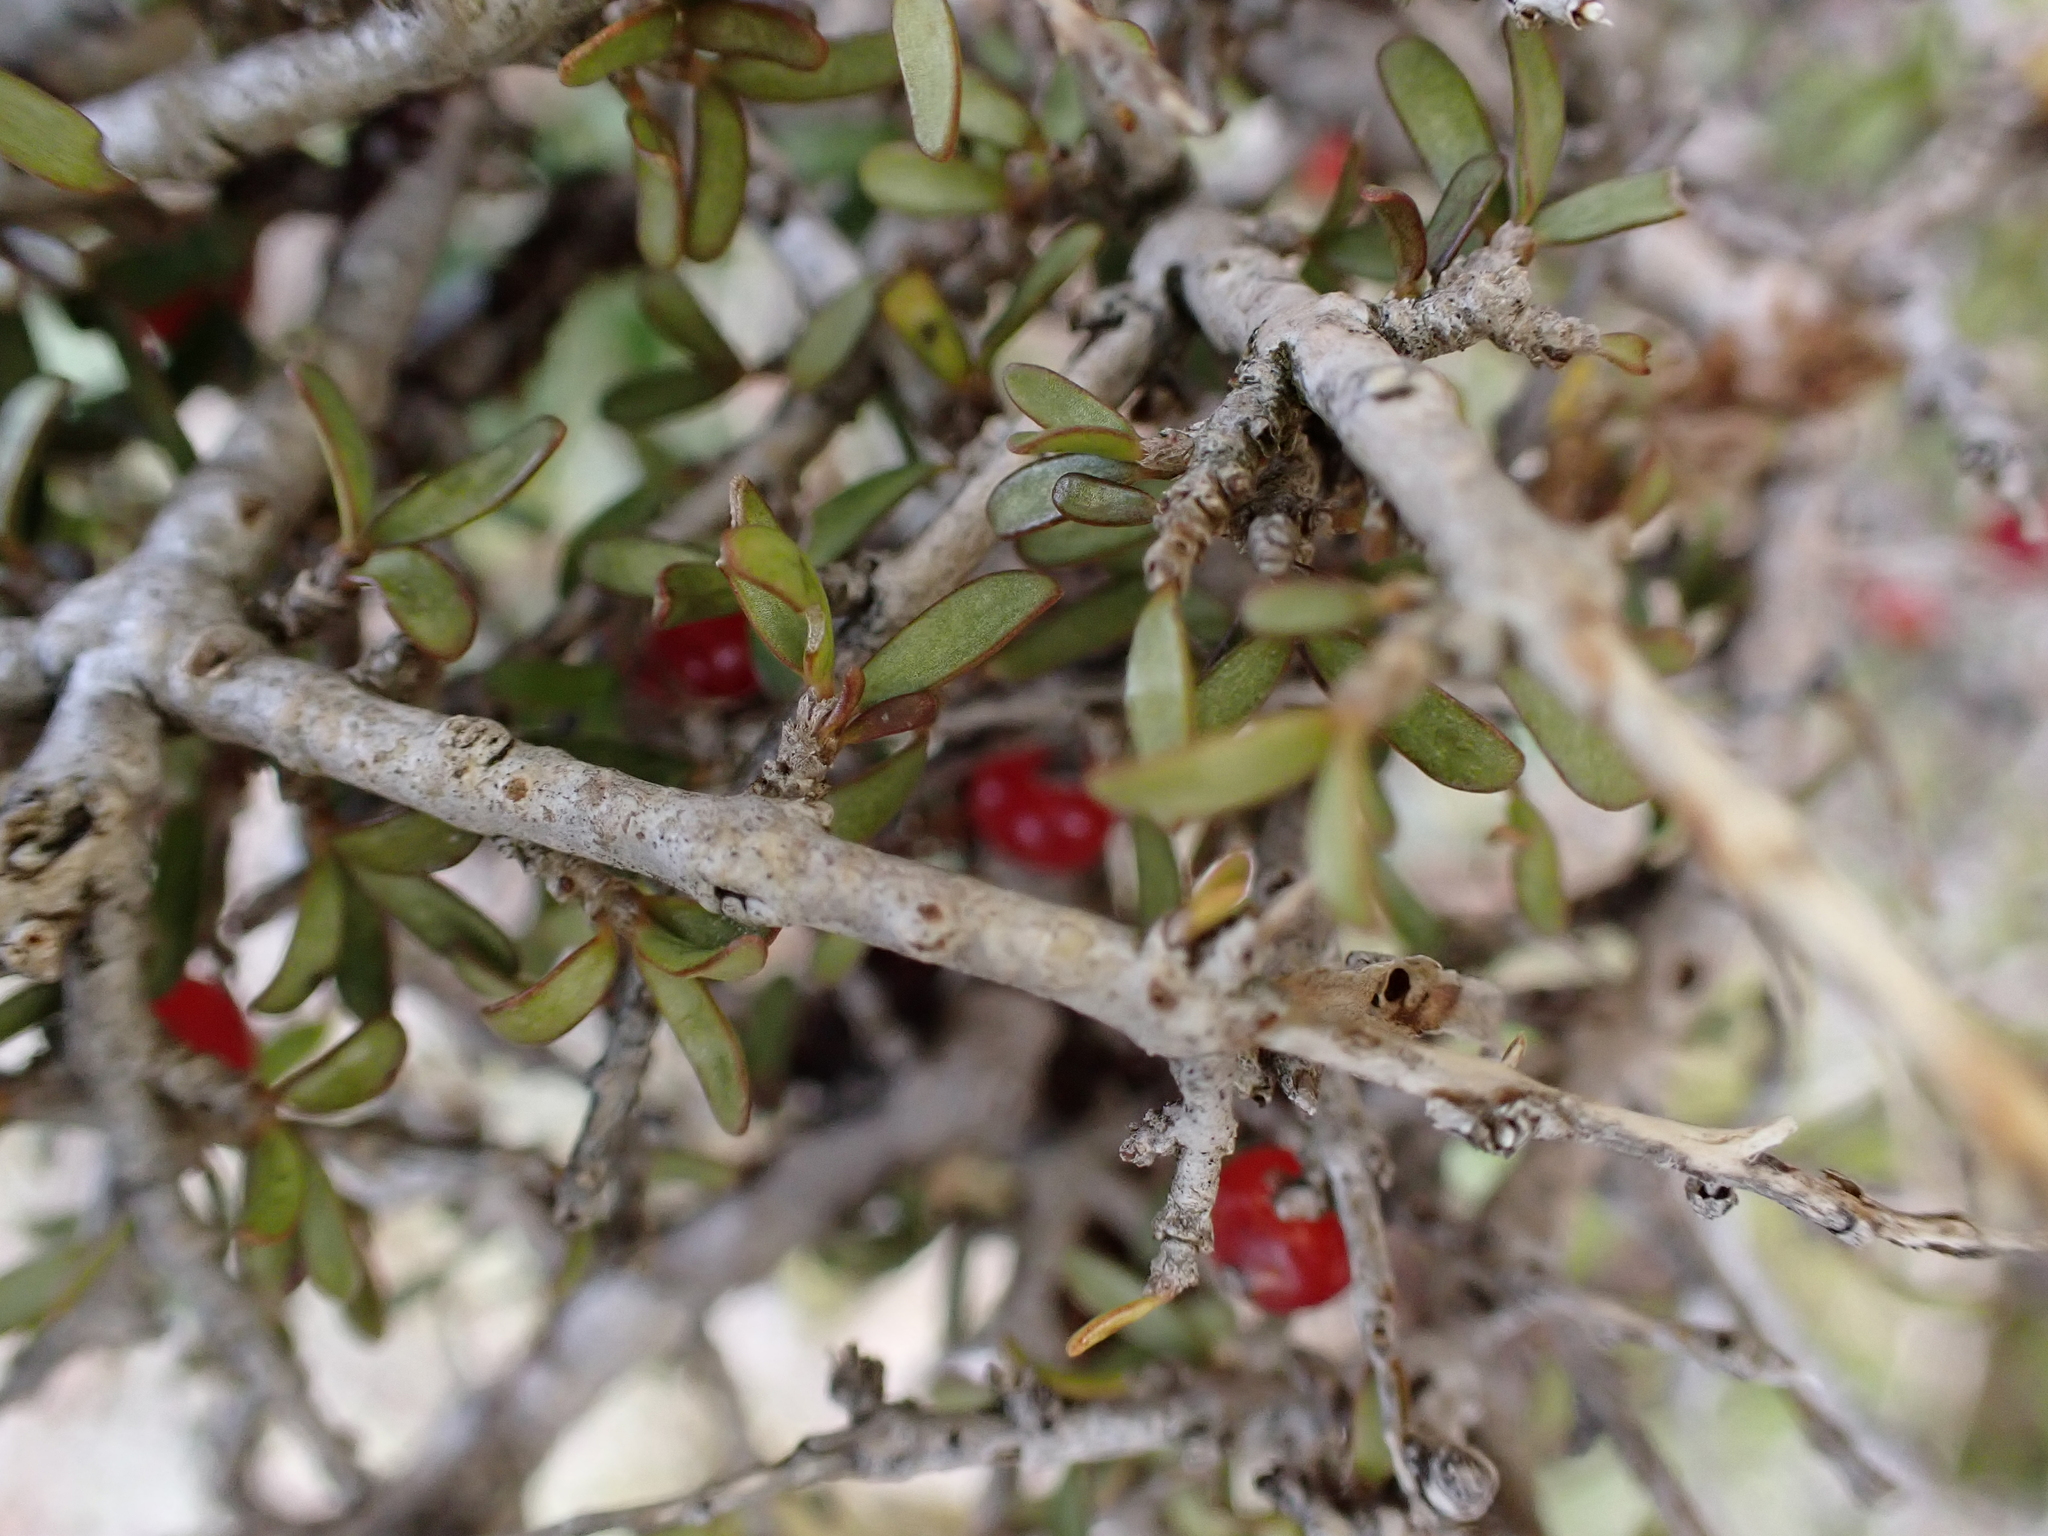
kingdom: Plantae
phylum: Tracheophyta
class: Magnoliopsida
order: Gentianales
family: Rubiaceae
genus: Coprosma
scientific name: Coprosma decurva
